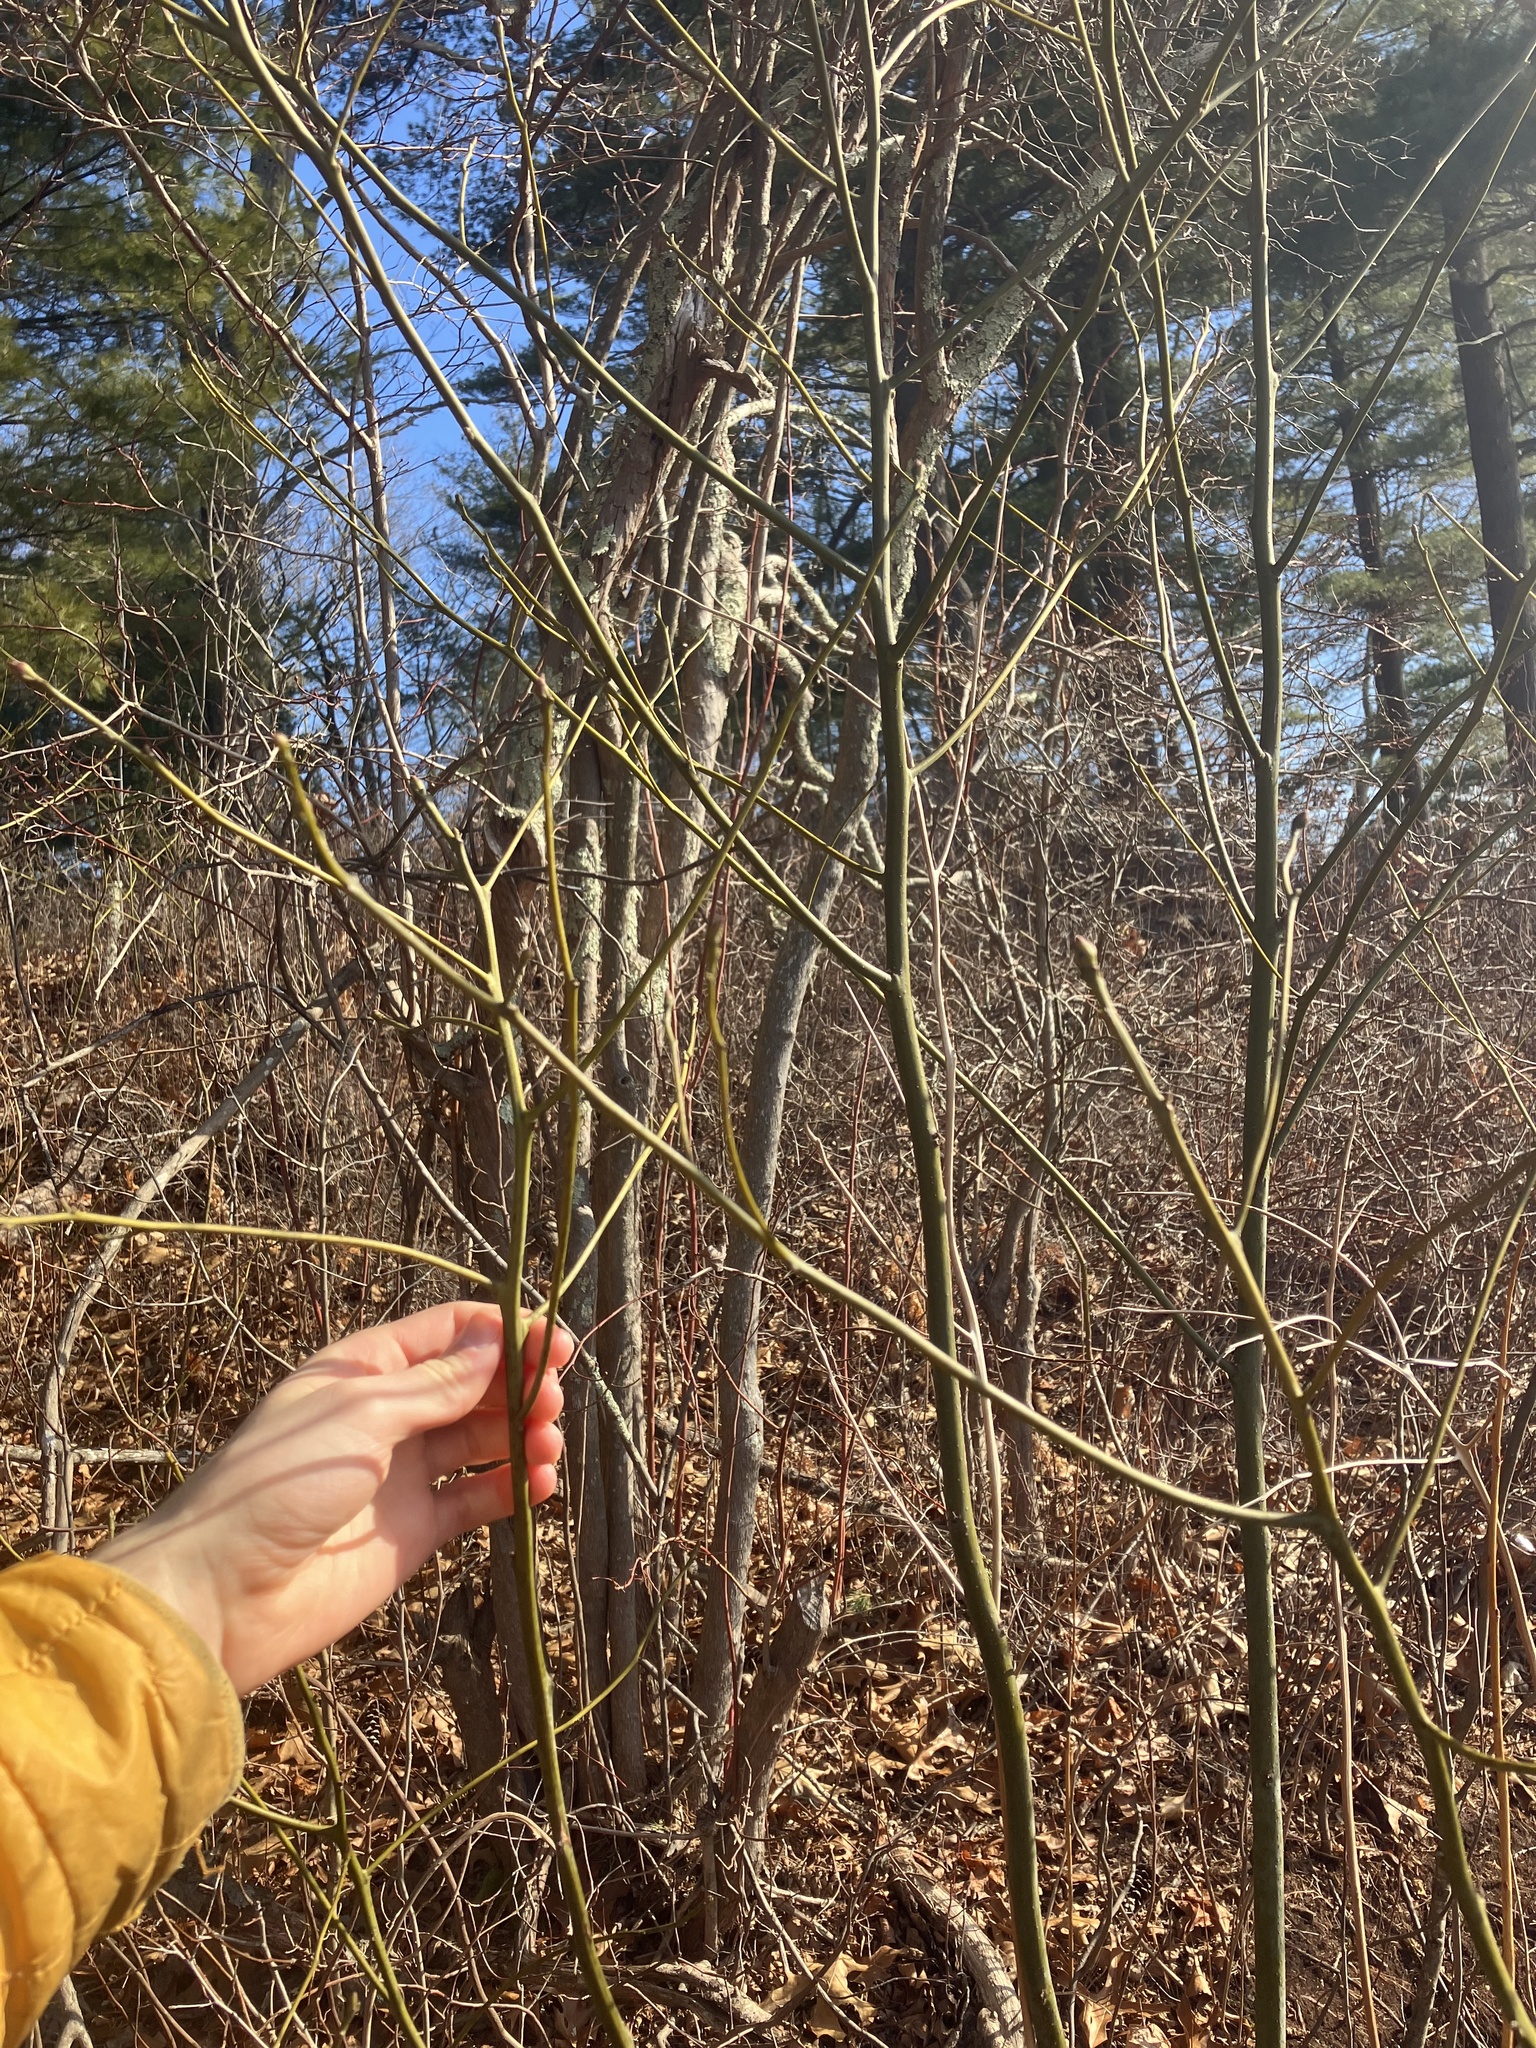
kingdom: Plantae
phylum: Tracheophyta
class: Magnoliopsida
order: Laurales
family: Lauraceae
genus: Sassafras
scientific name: Sassafras albidum
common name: Sassafras
